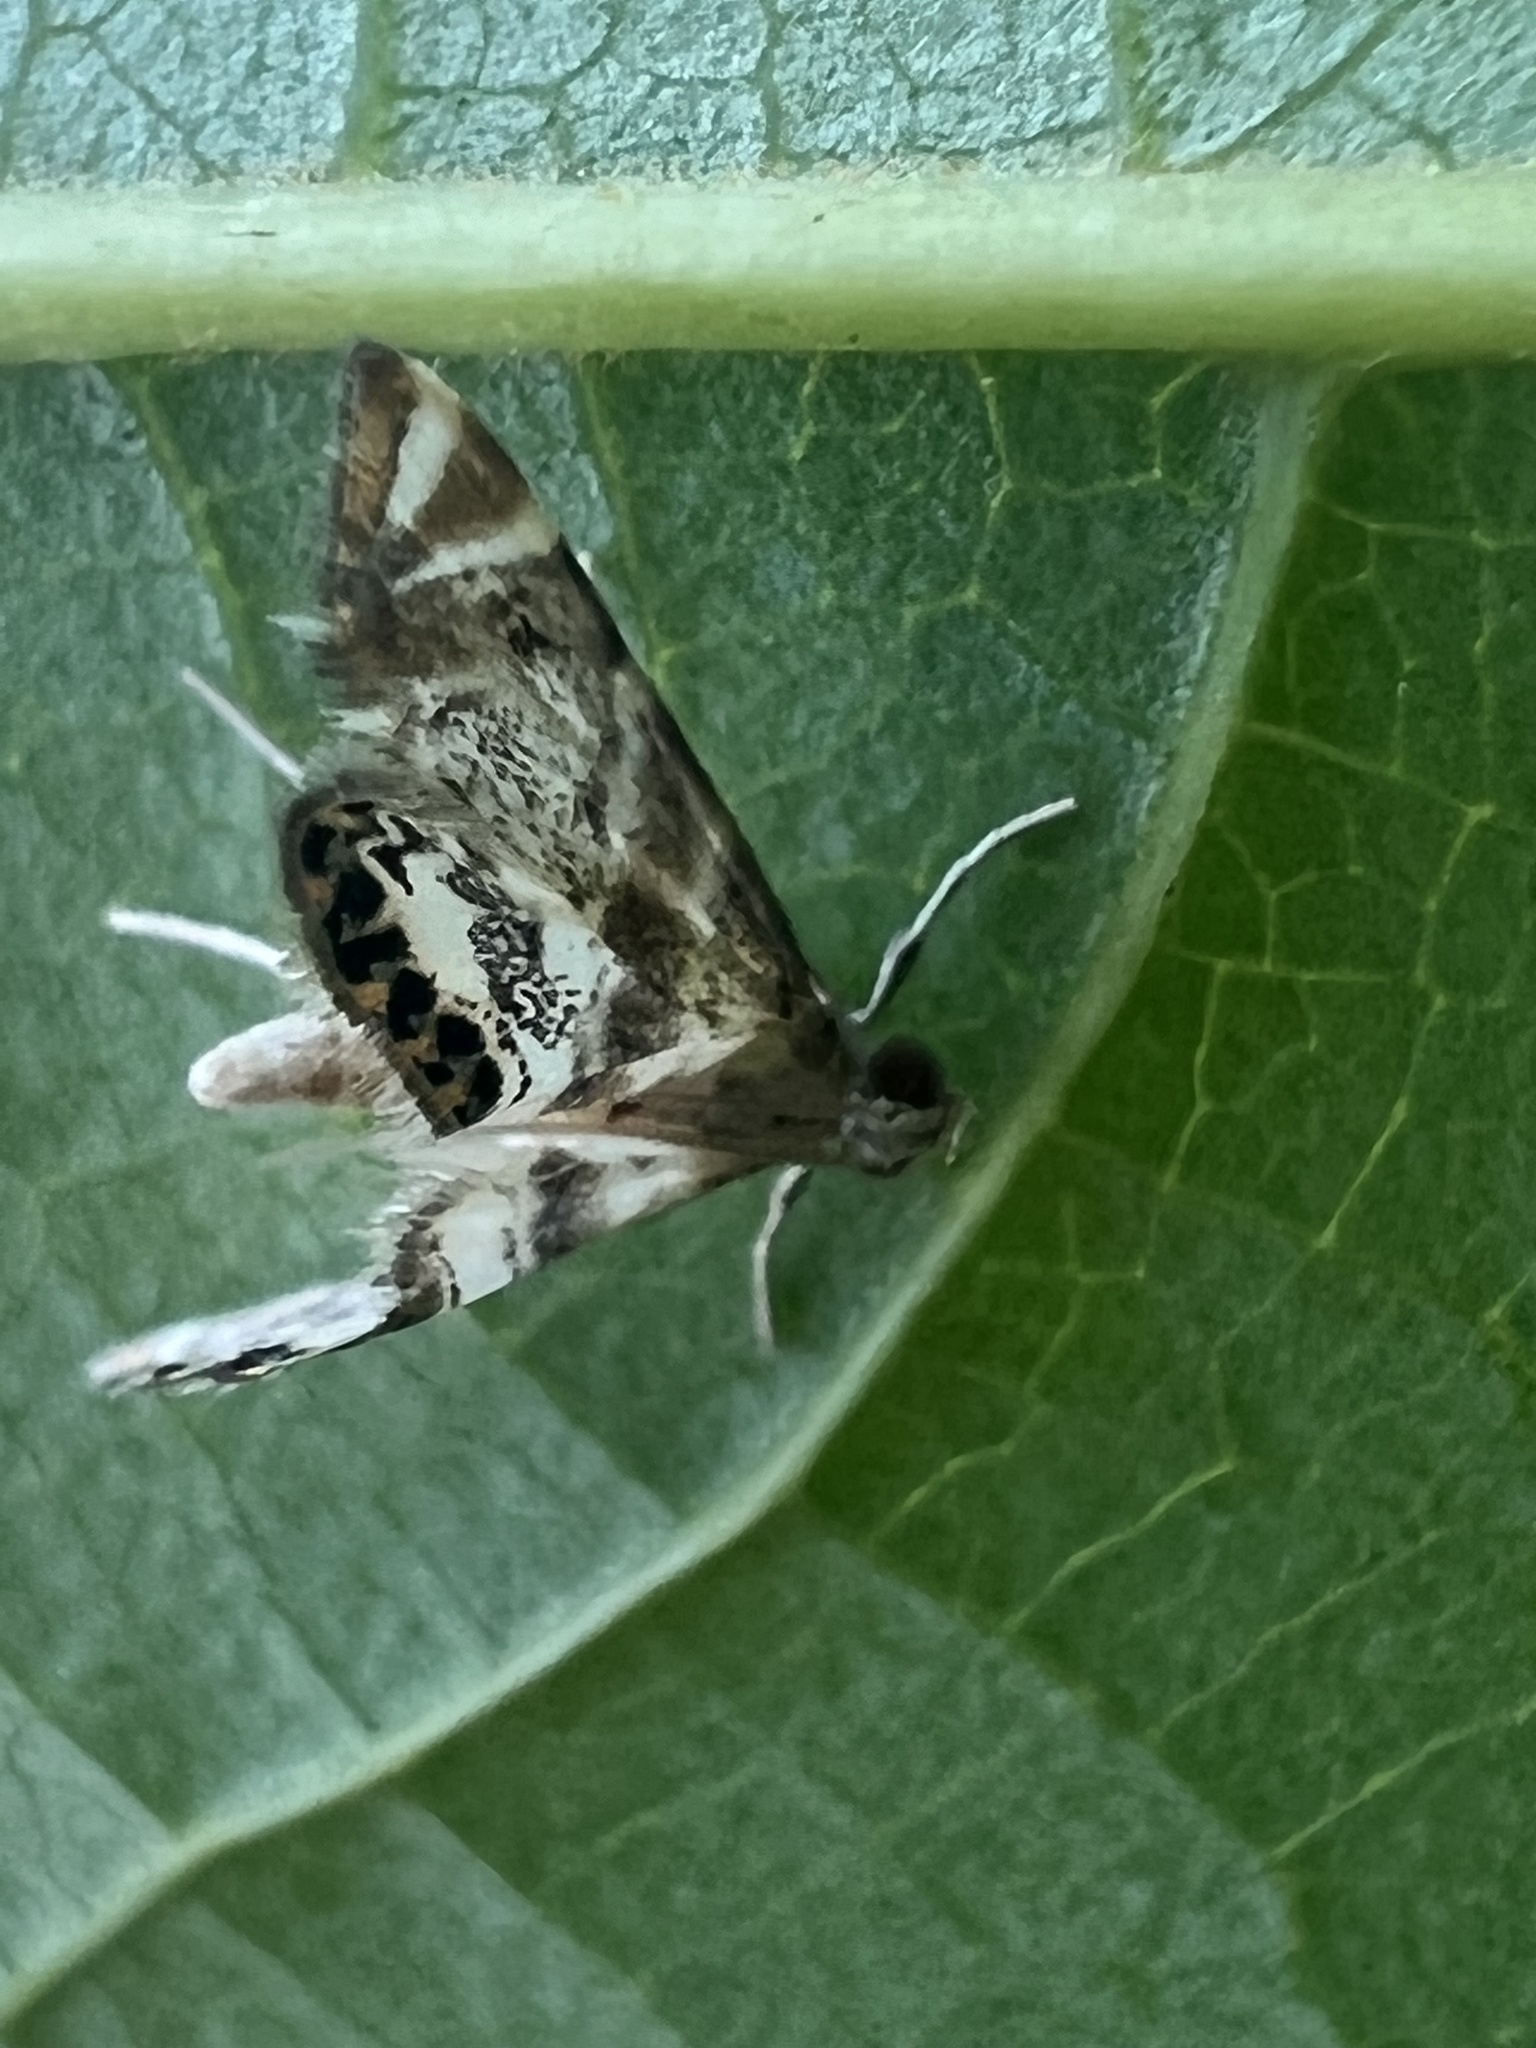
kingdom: Animalia
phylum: Arthropoda
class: Insecta
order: Lepidoptera
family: Crambidae
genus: Petrophila
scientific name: Petrophila fulicalis
